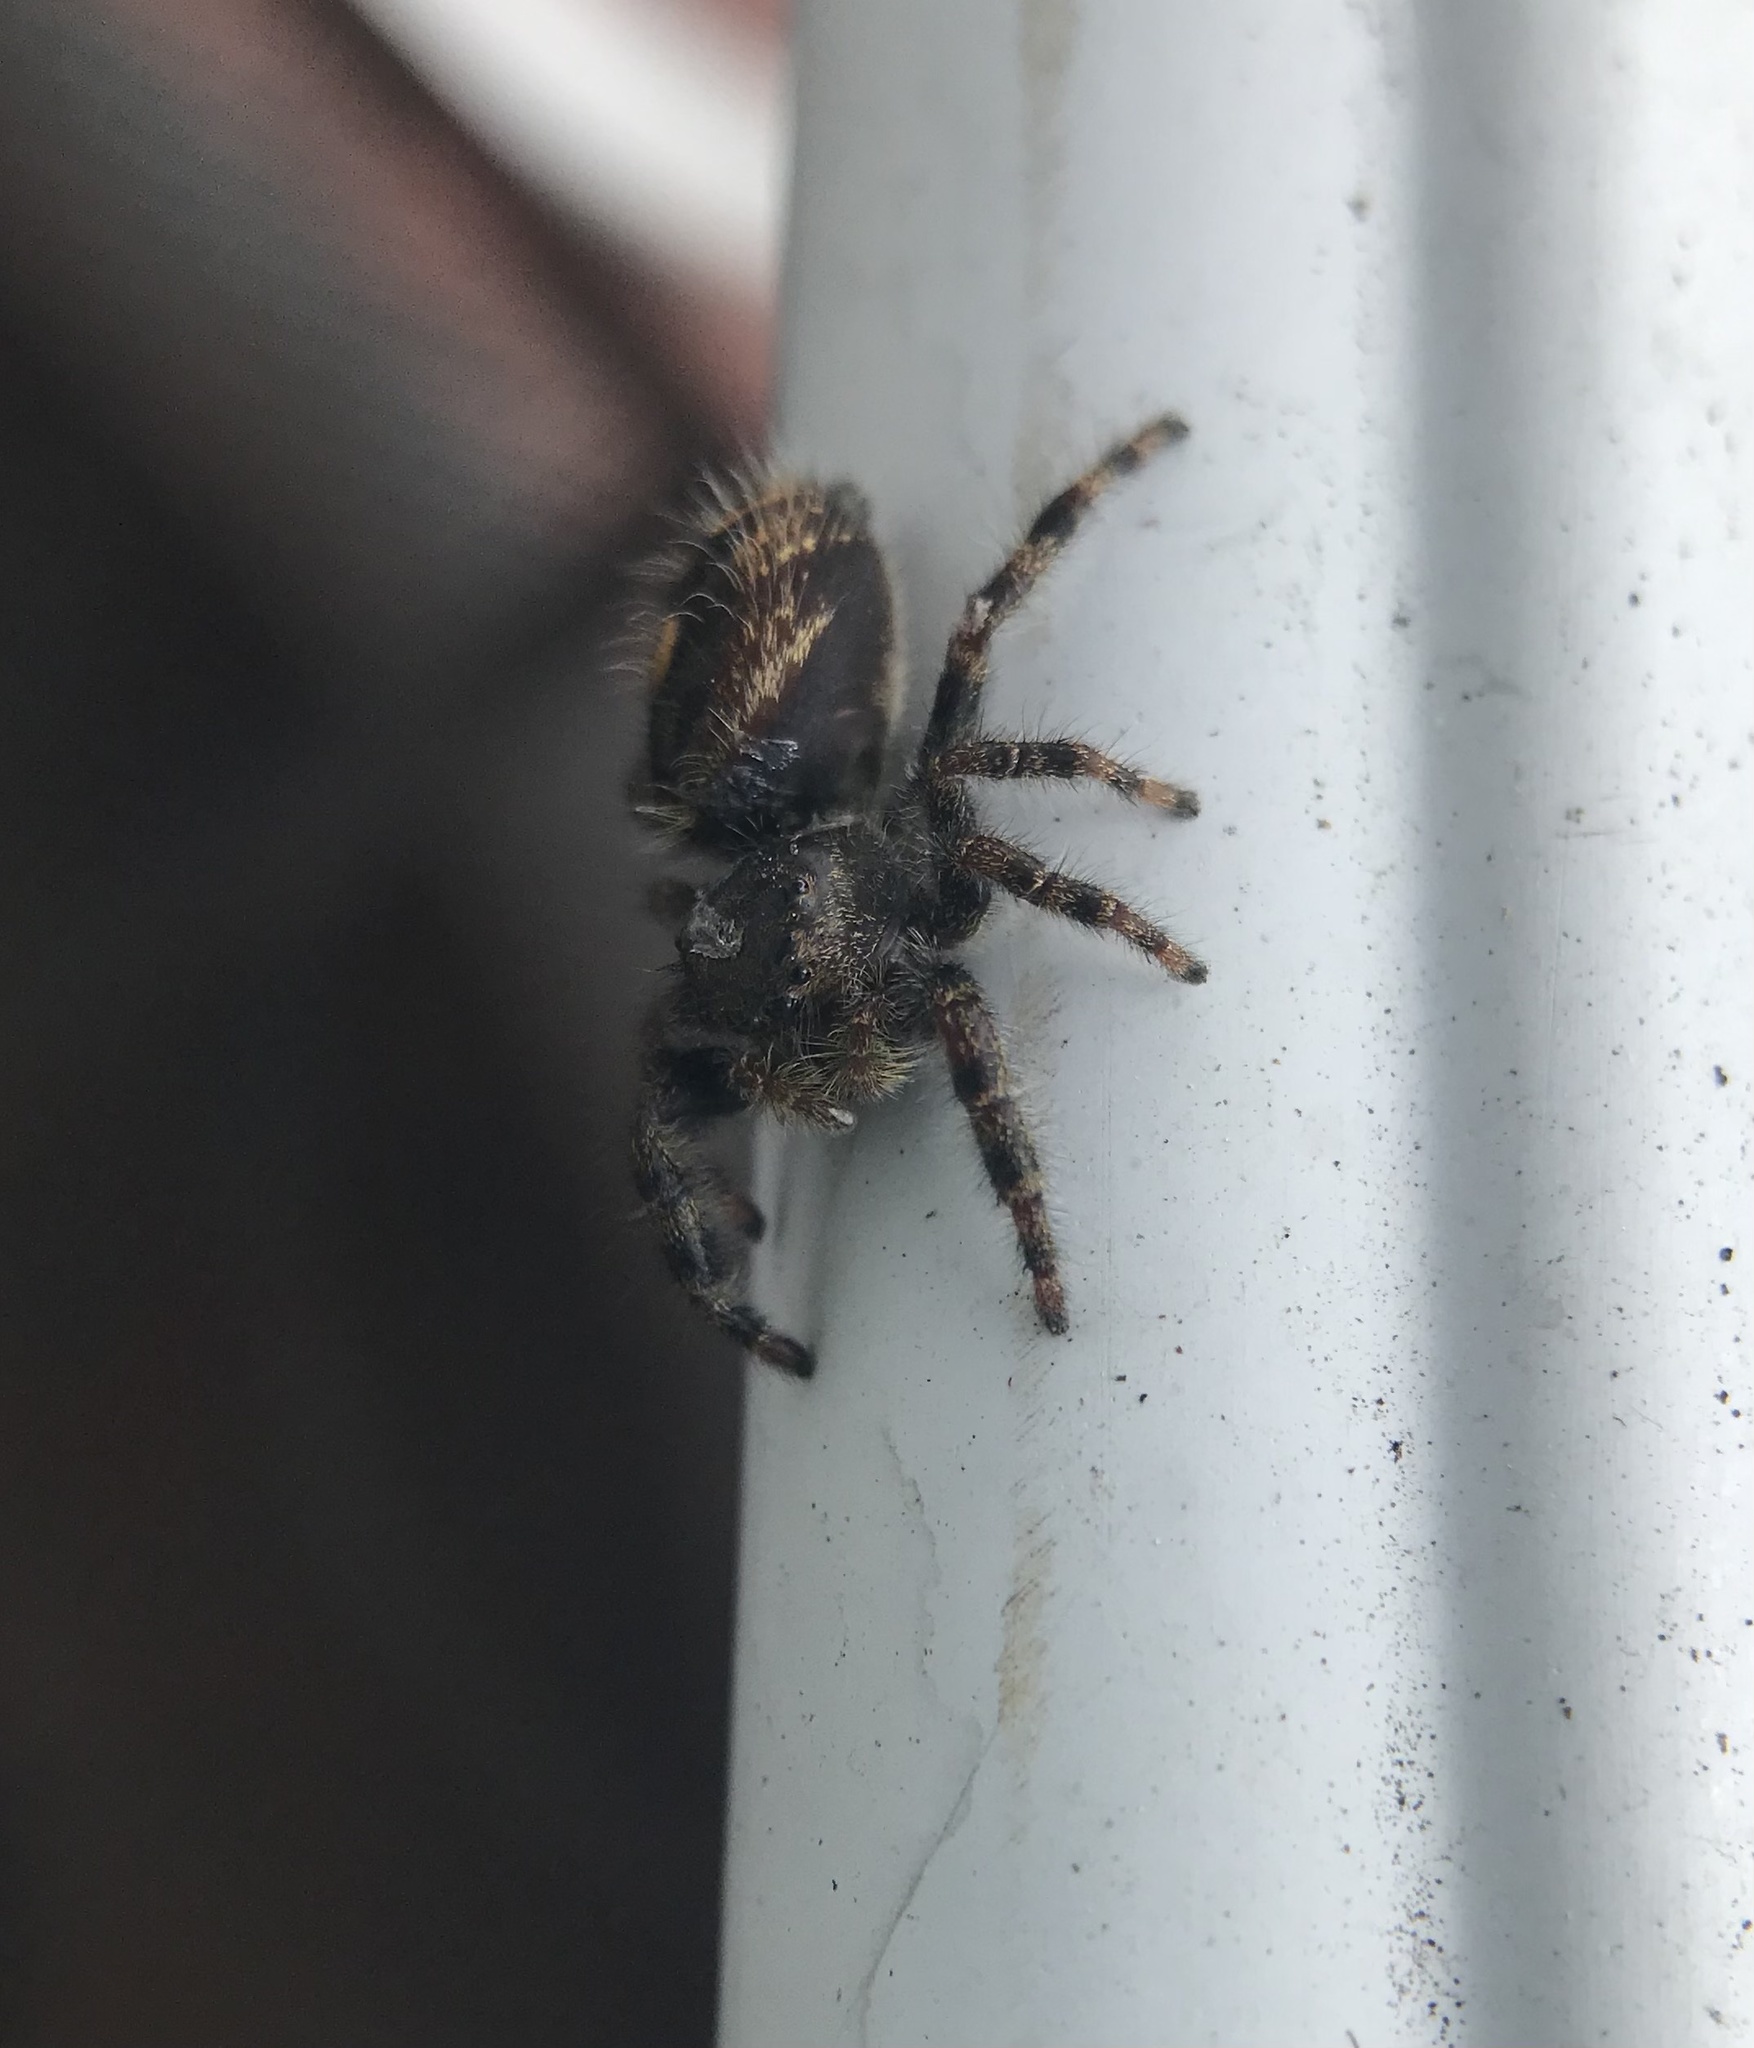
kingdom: Animalia
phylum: Arthropoda
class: Arachnida
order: Araneae
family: Salticidae
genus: Phidippus
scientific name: Phidippus audax
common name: Bold jumper
